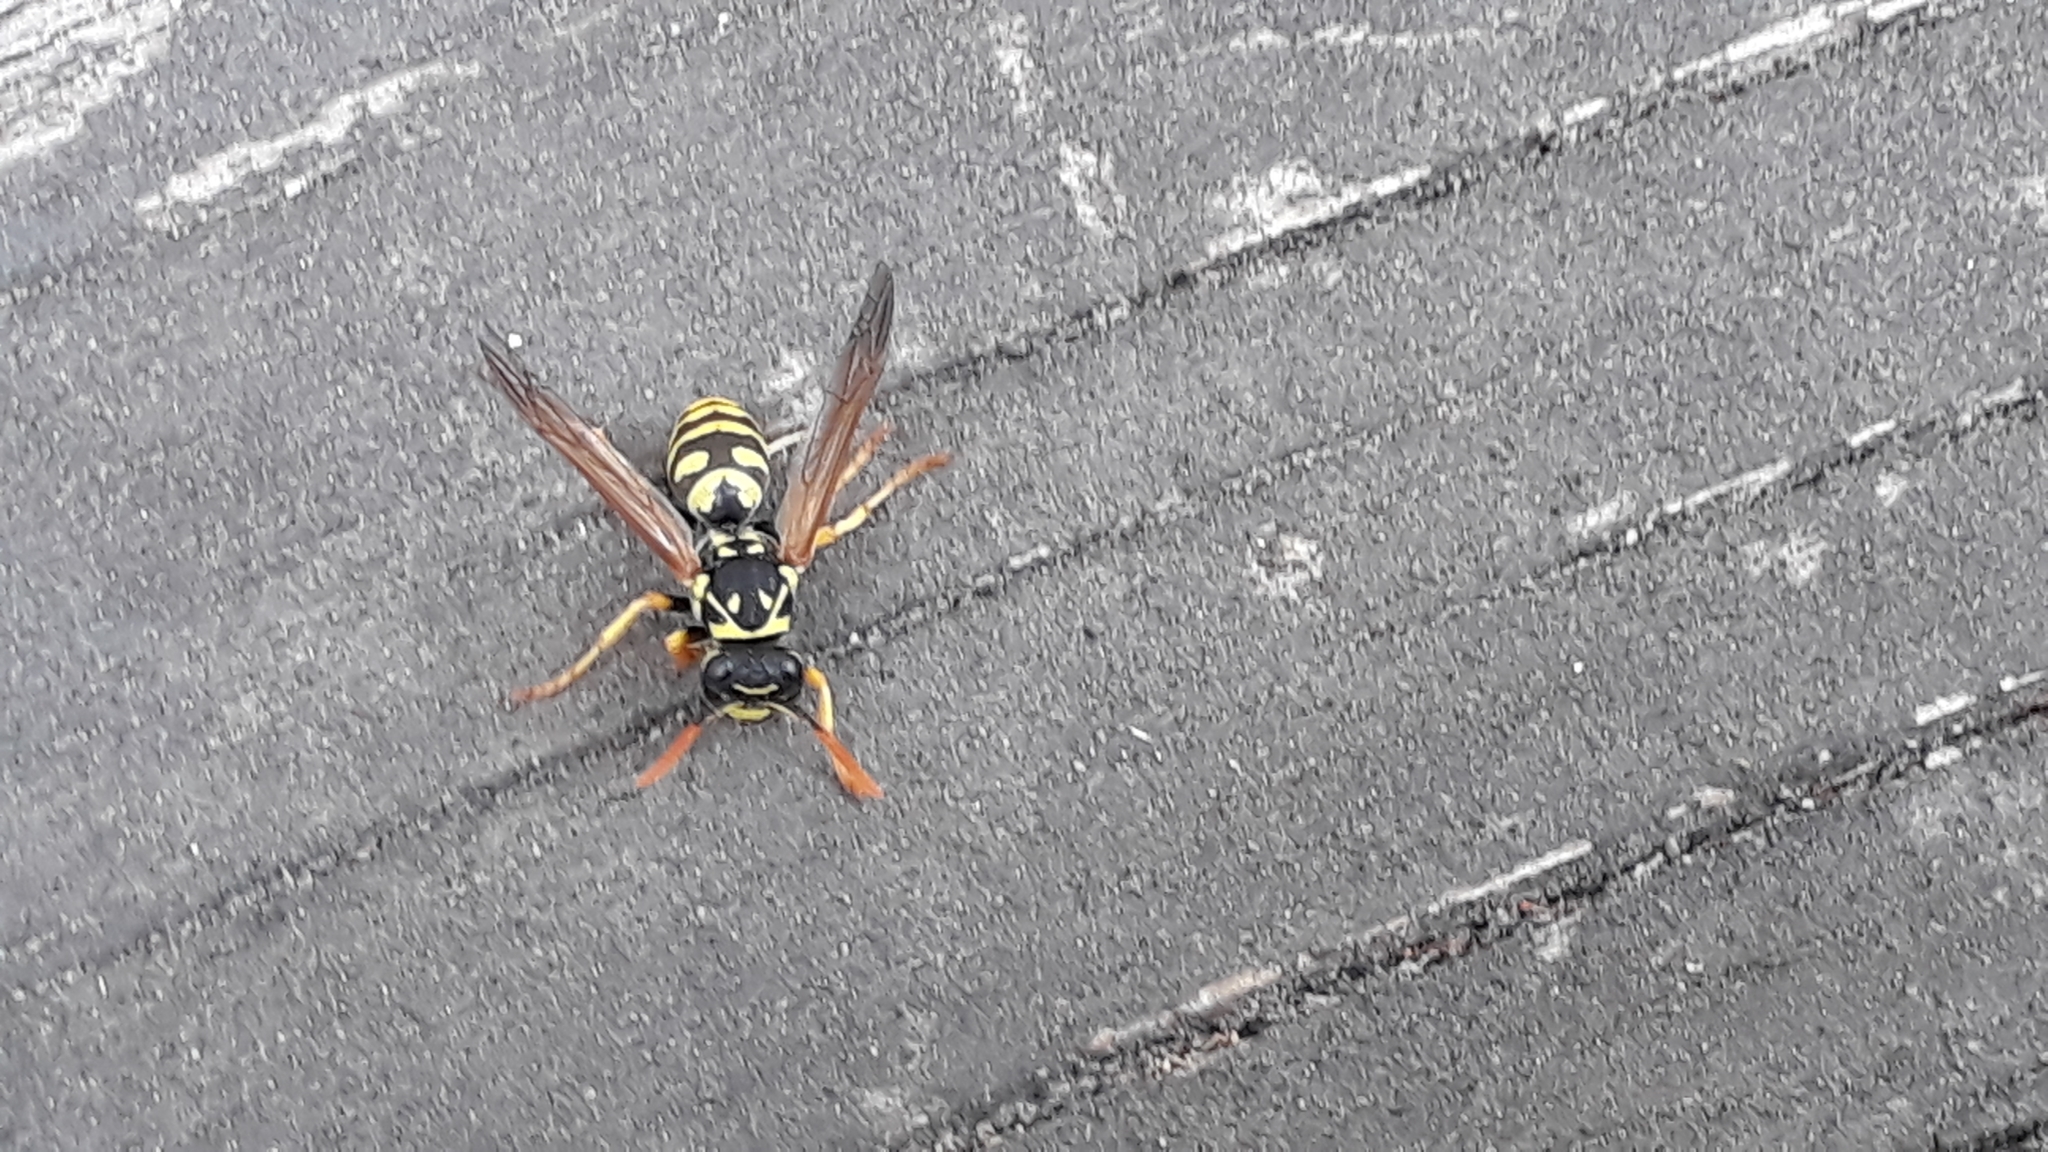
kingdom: Animalia
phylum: Arthropoda
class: Insecta
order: Hymenoptera
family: Eumenidae
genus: Polistes
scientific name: Polistes dominula
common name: Paper wasp
